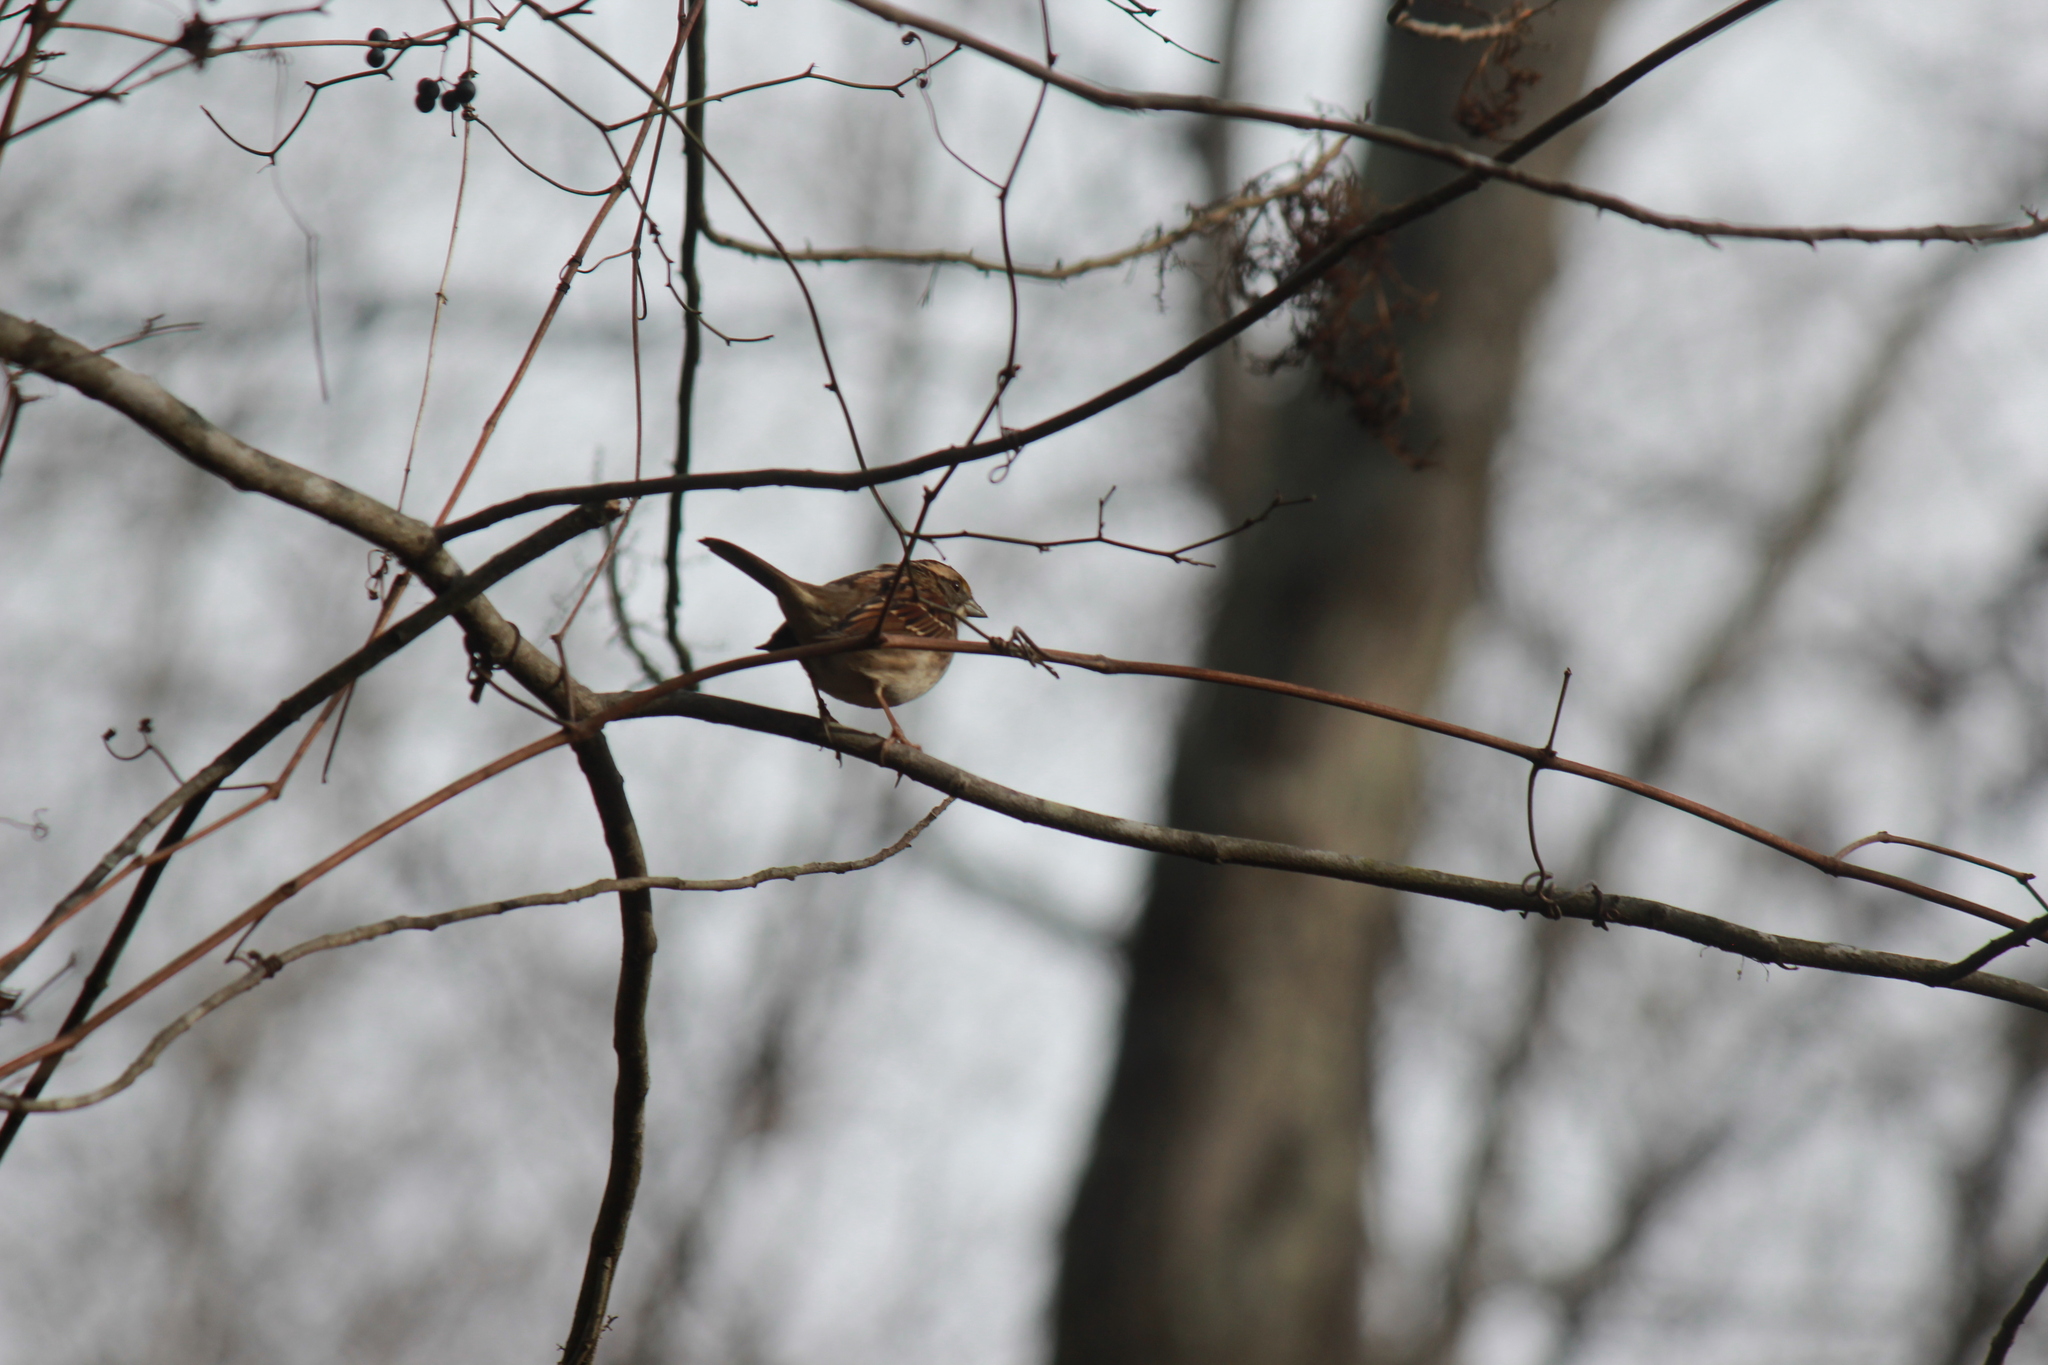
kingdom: Animalia
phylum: Chordata
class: Aves
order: Passeriformes
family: Passerellidae
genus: Zonotrichia
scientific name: Zonotrichia albicollis
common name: White-throated sparrow
